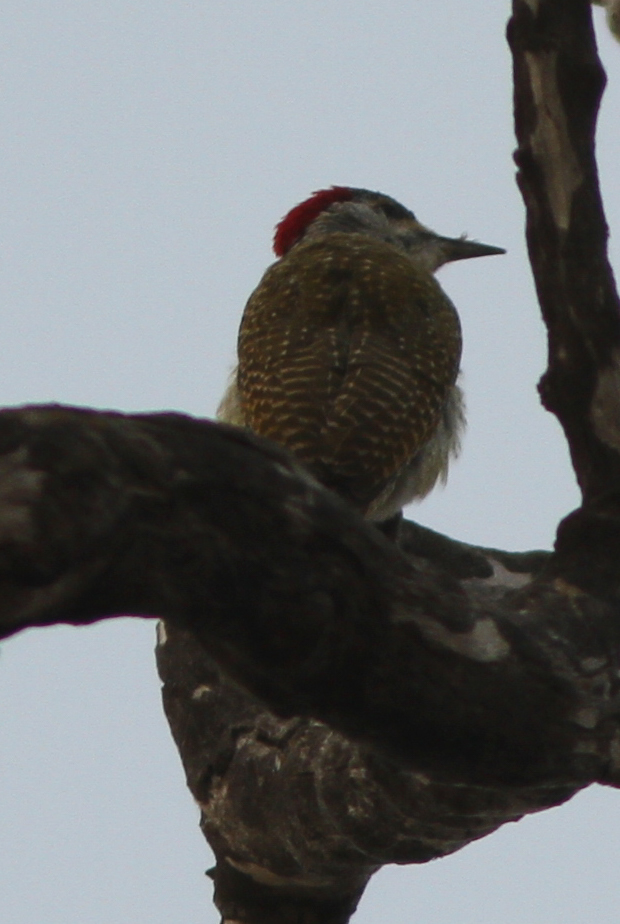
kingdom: Animalia
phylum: Chordata
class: Aves
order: Piciformes
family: Picidae
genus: Campethera
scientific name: Campethera punctuligera
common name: Fine-spotted woodpecker
